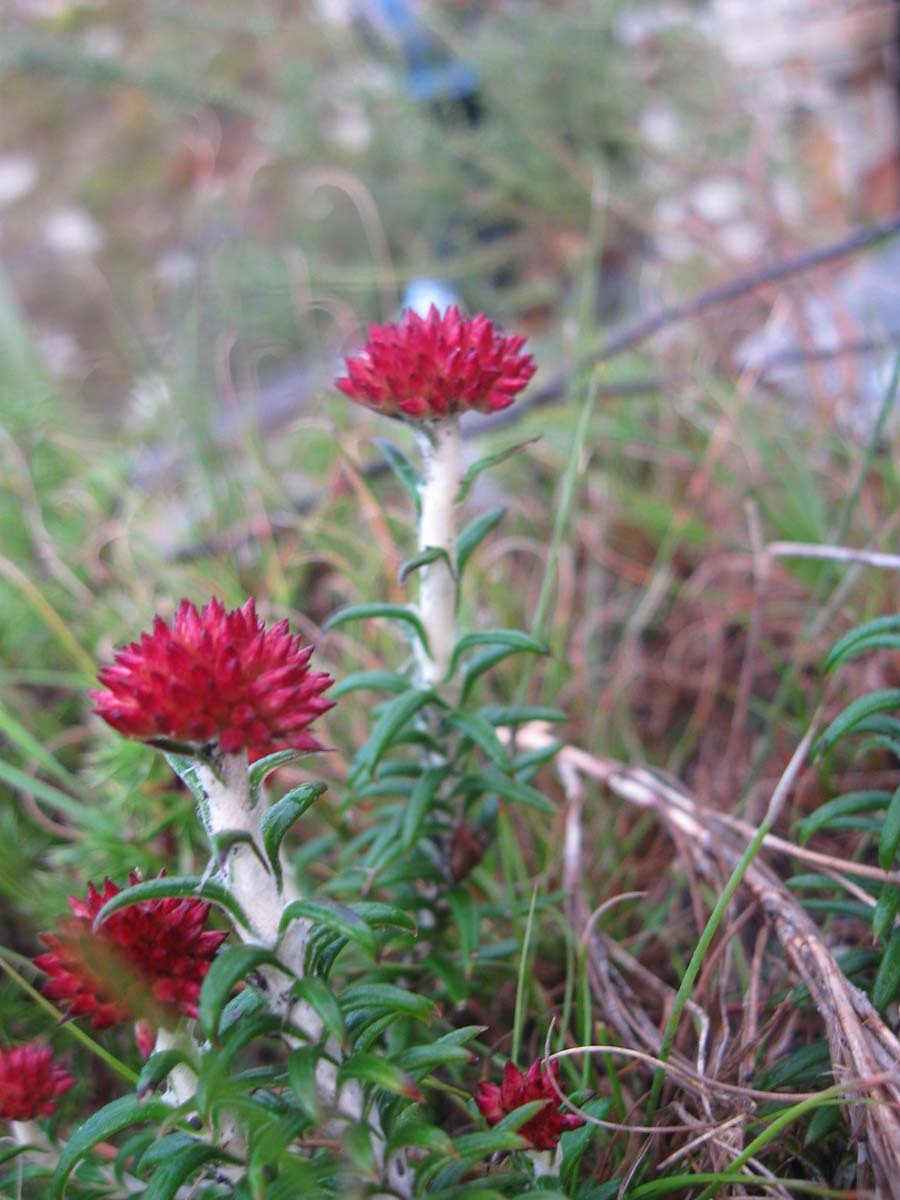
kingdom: Plantae
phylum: Tracheophyta
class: Magnoliopsida
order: Asterales
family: Asteraceae
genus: Anaxeton
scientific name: Anaxeton arborescens
